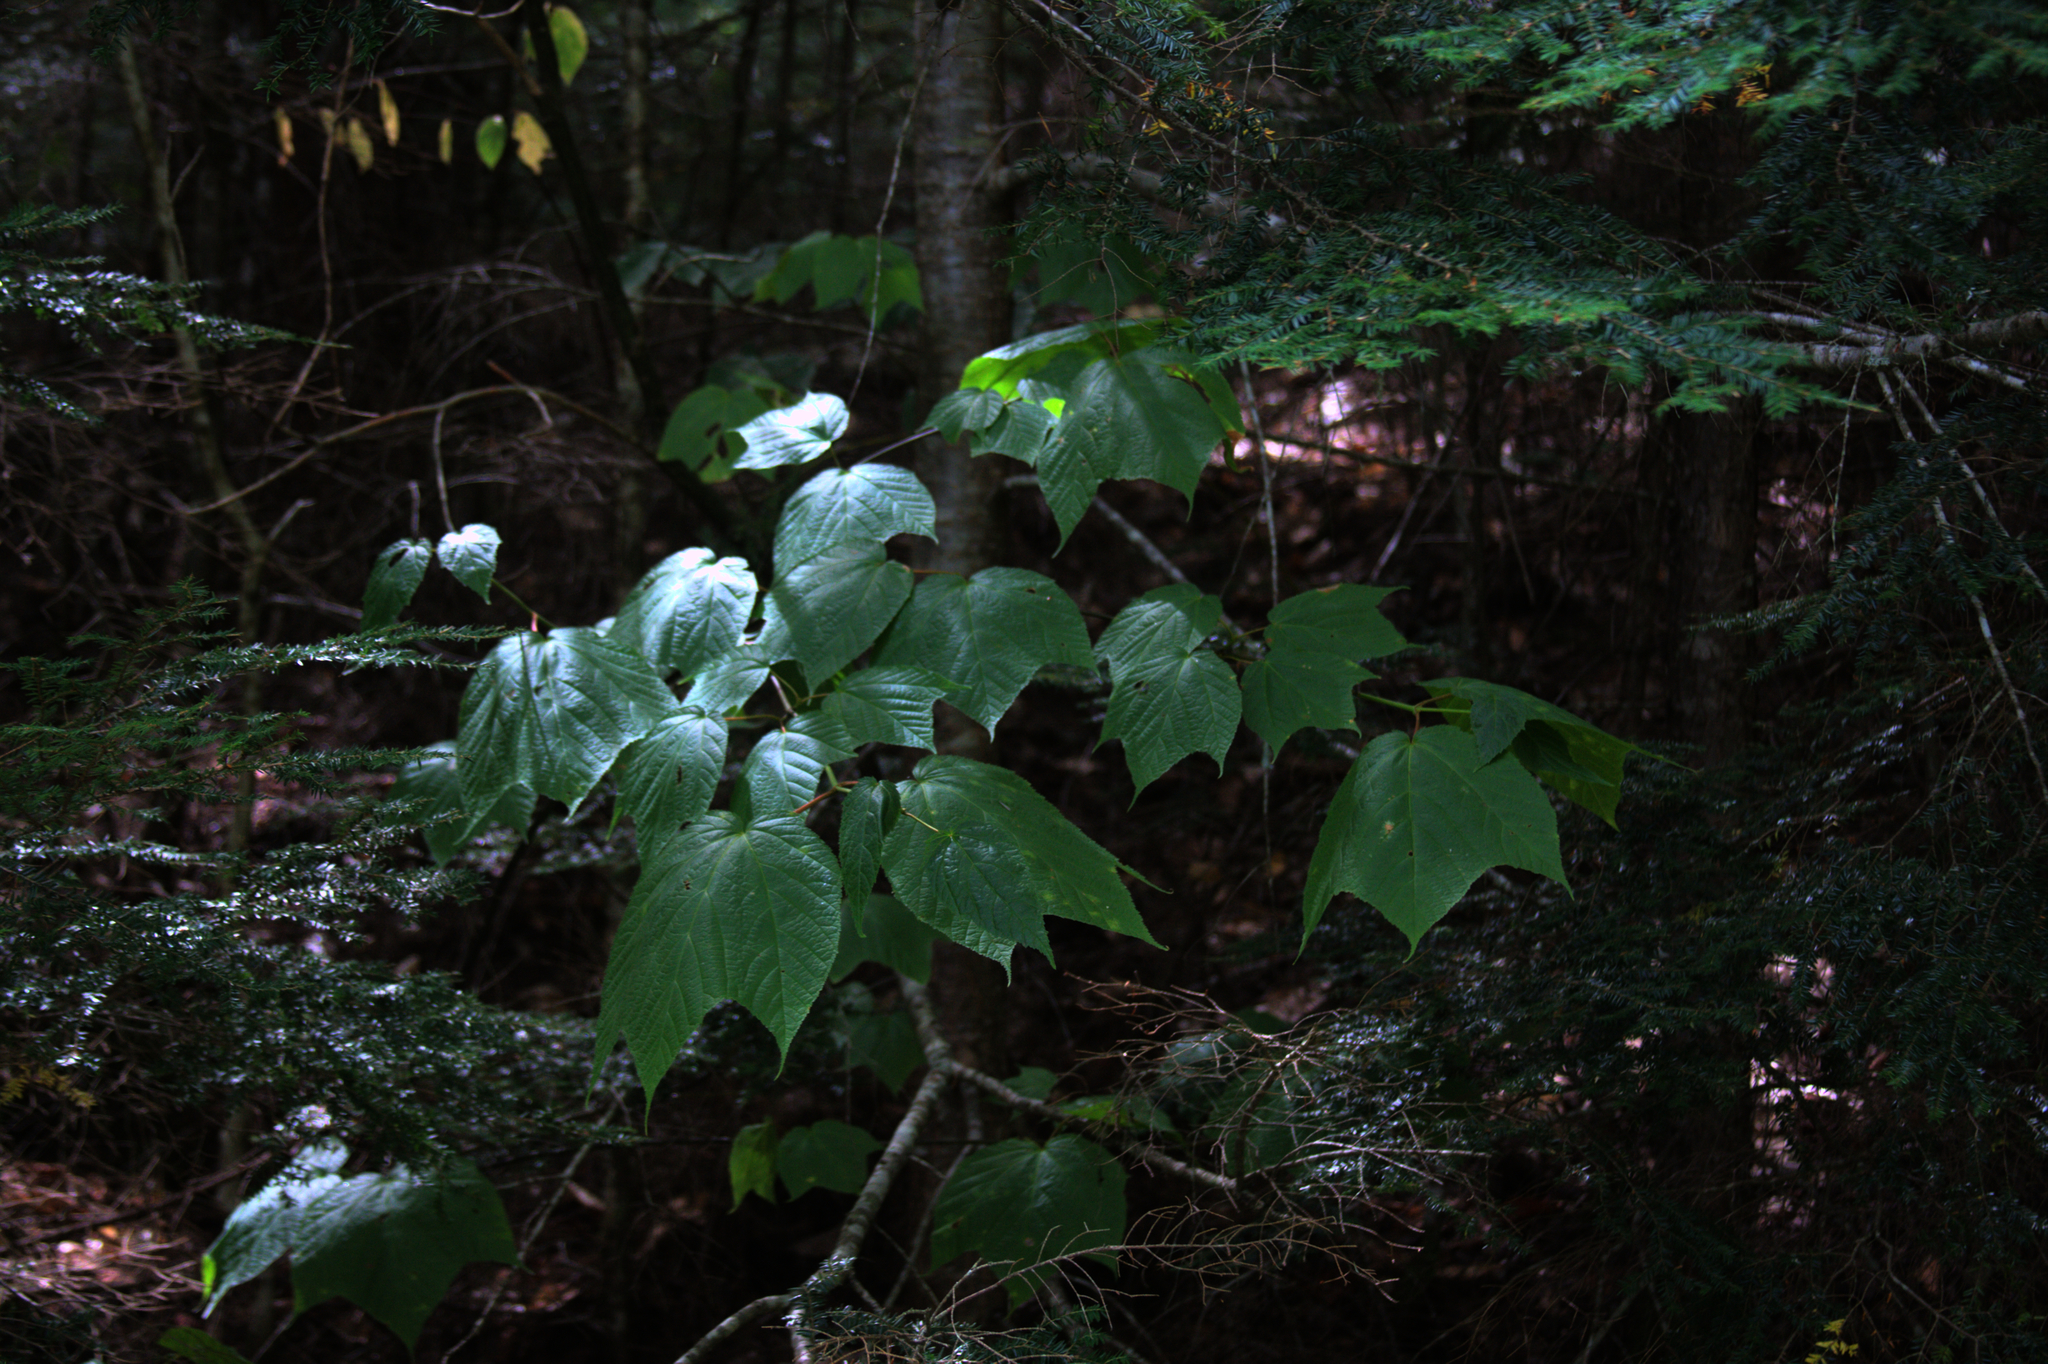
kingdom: Plantae
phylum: Tracheophyta
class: Magnoliopsida
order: Sapindales
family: Sapindaceae
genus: Acer
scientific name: Acer pensylvanicum
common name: Moosewood
